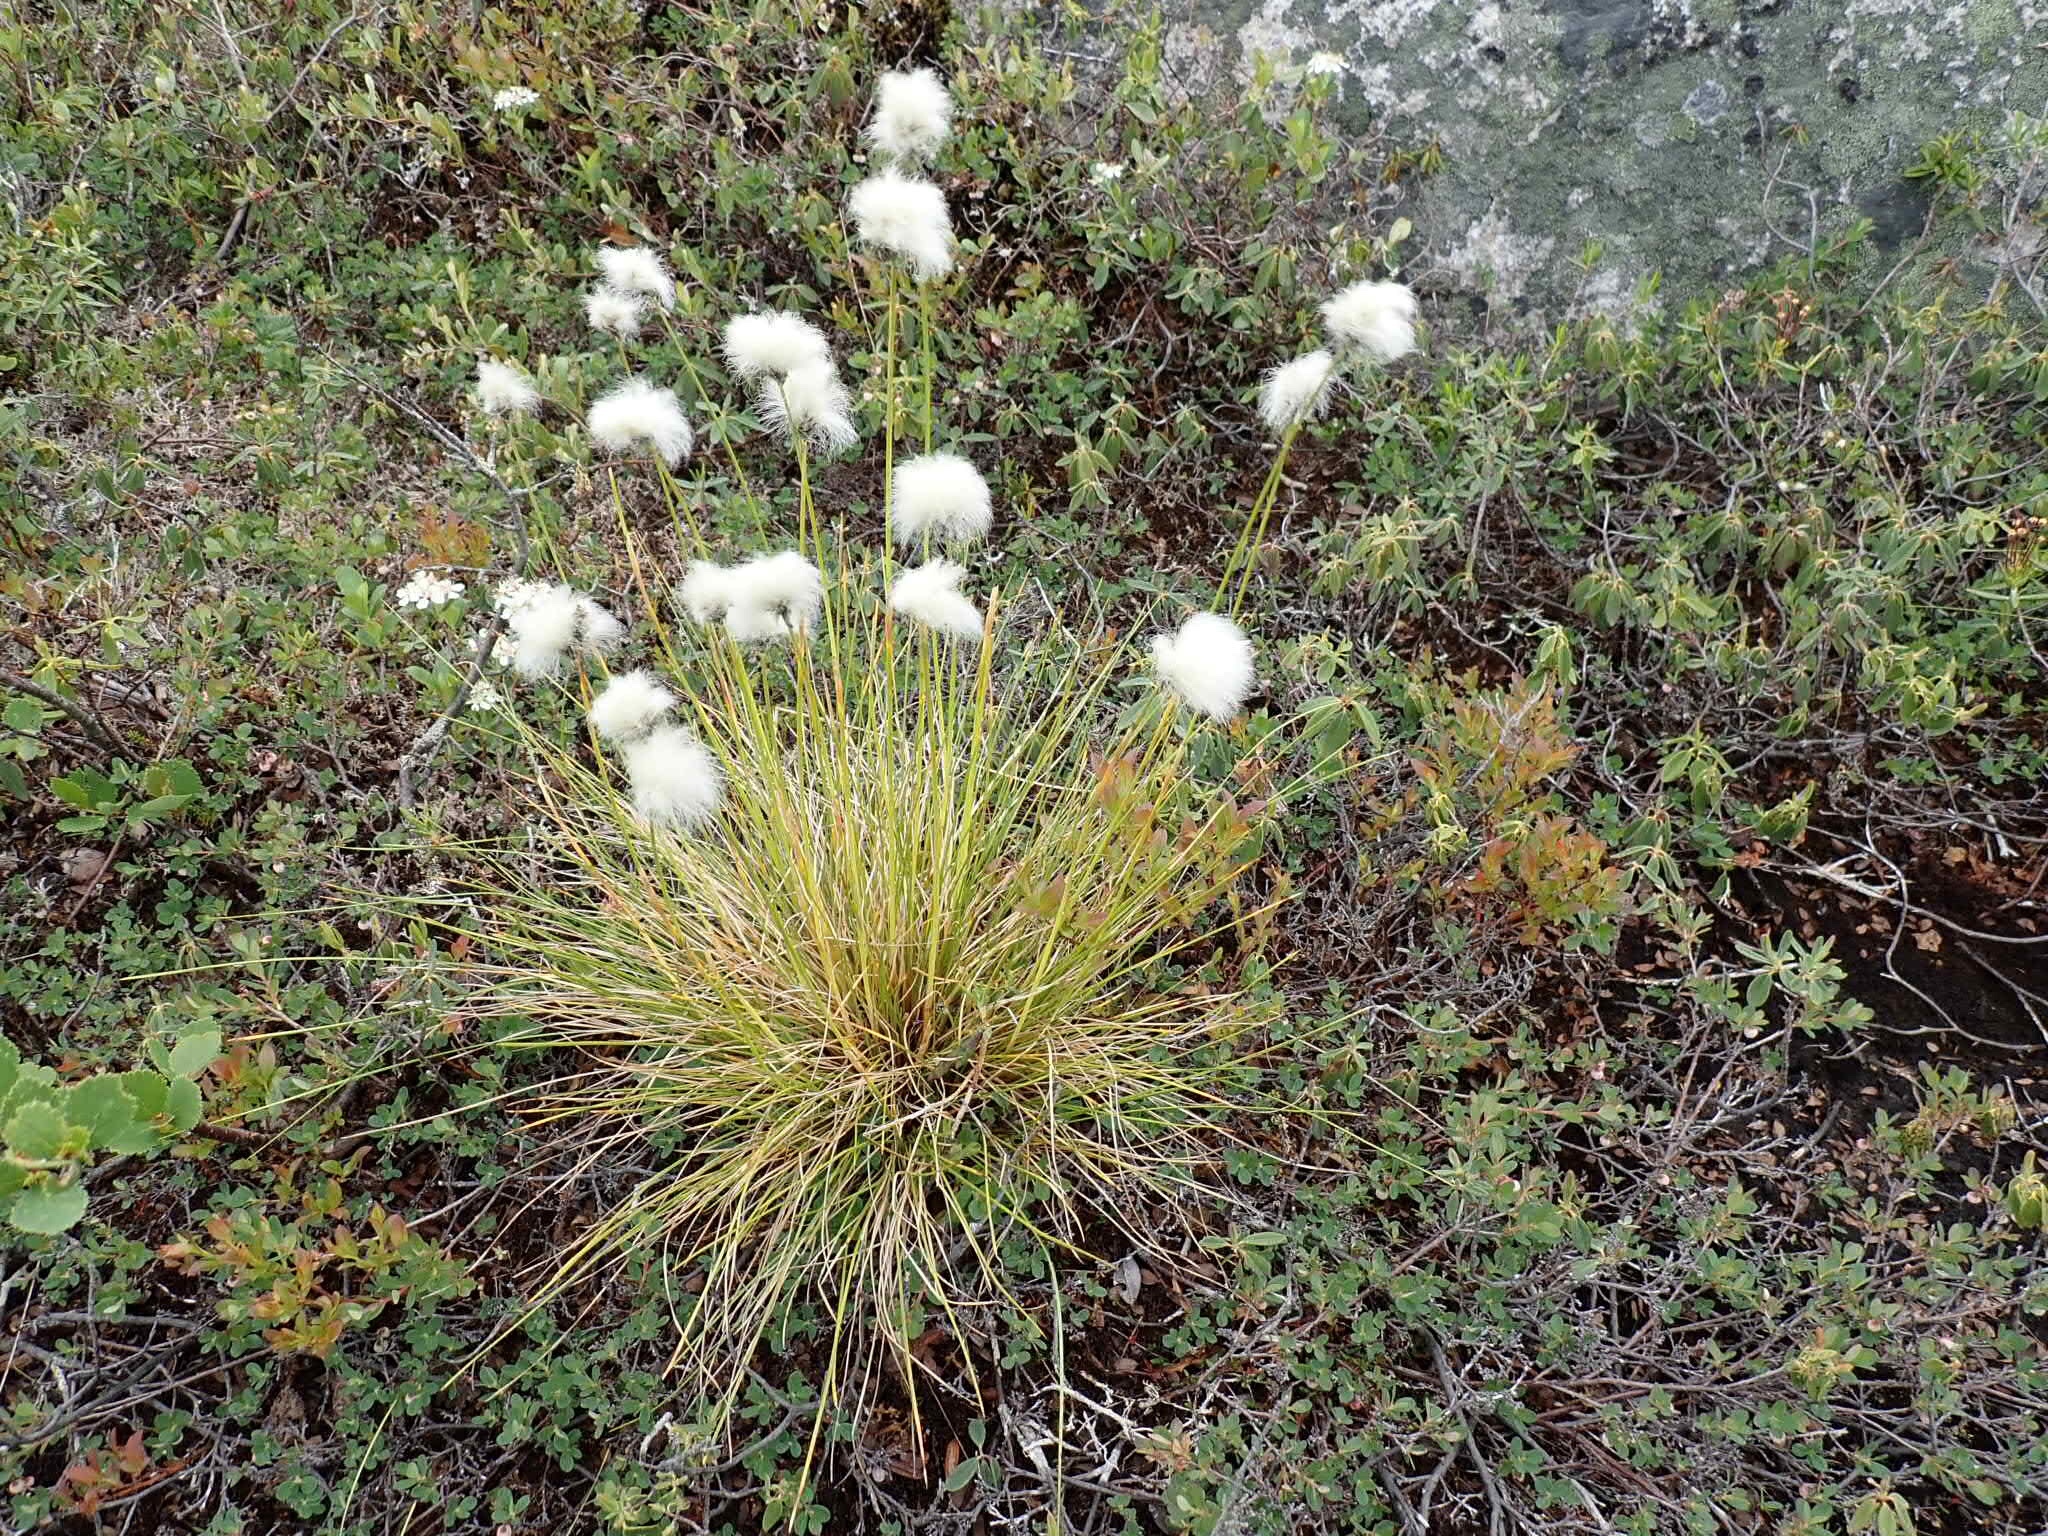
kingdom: Plantae
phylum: Tracheophyta
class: Liliopsida
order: Poales
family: Cyperaceae
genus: Eriophorum
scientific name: Eriophorum vaginatum
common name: Hare's-tail cottongrass
